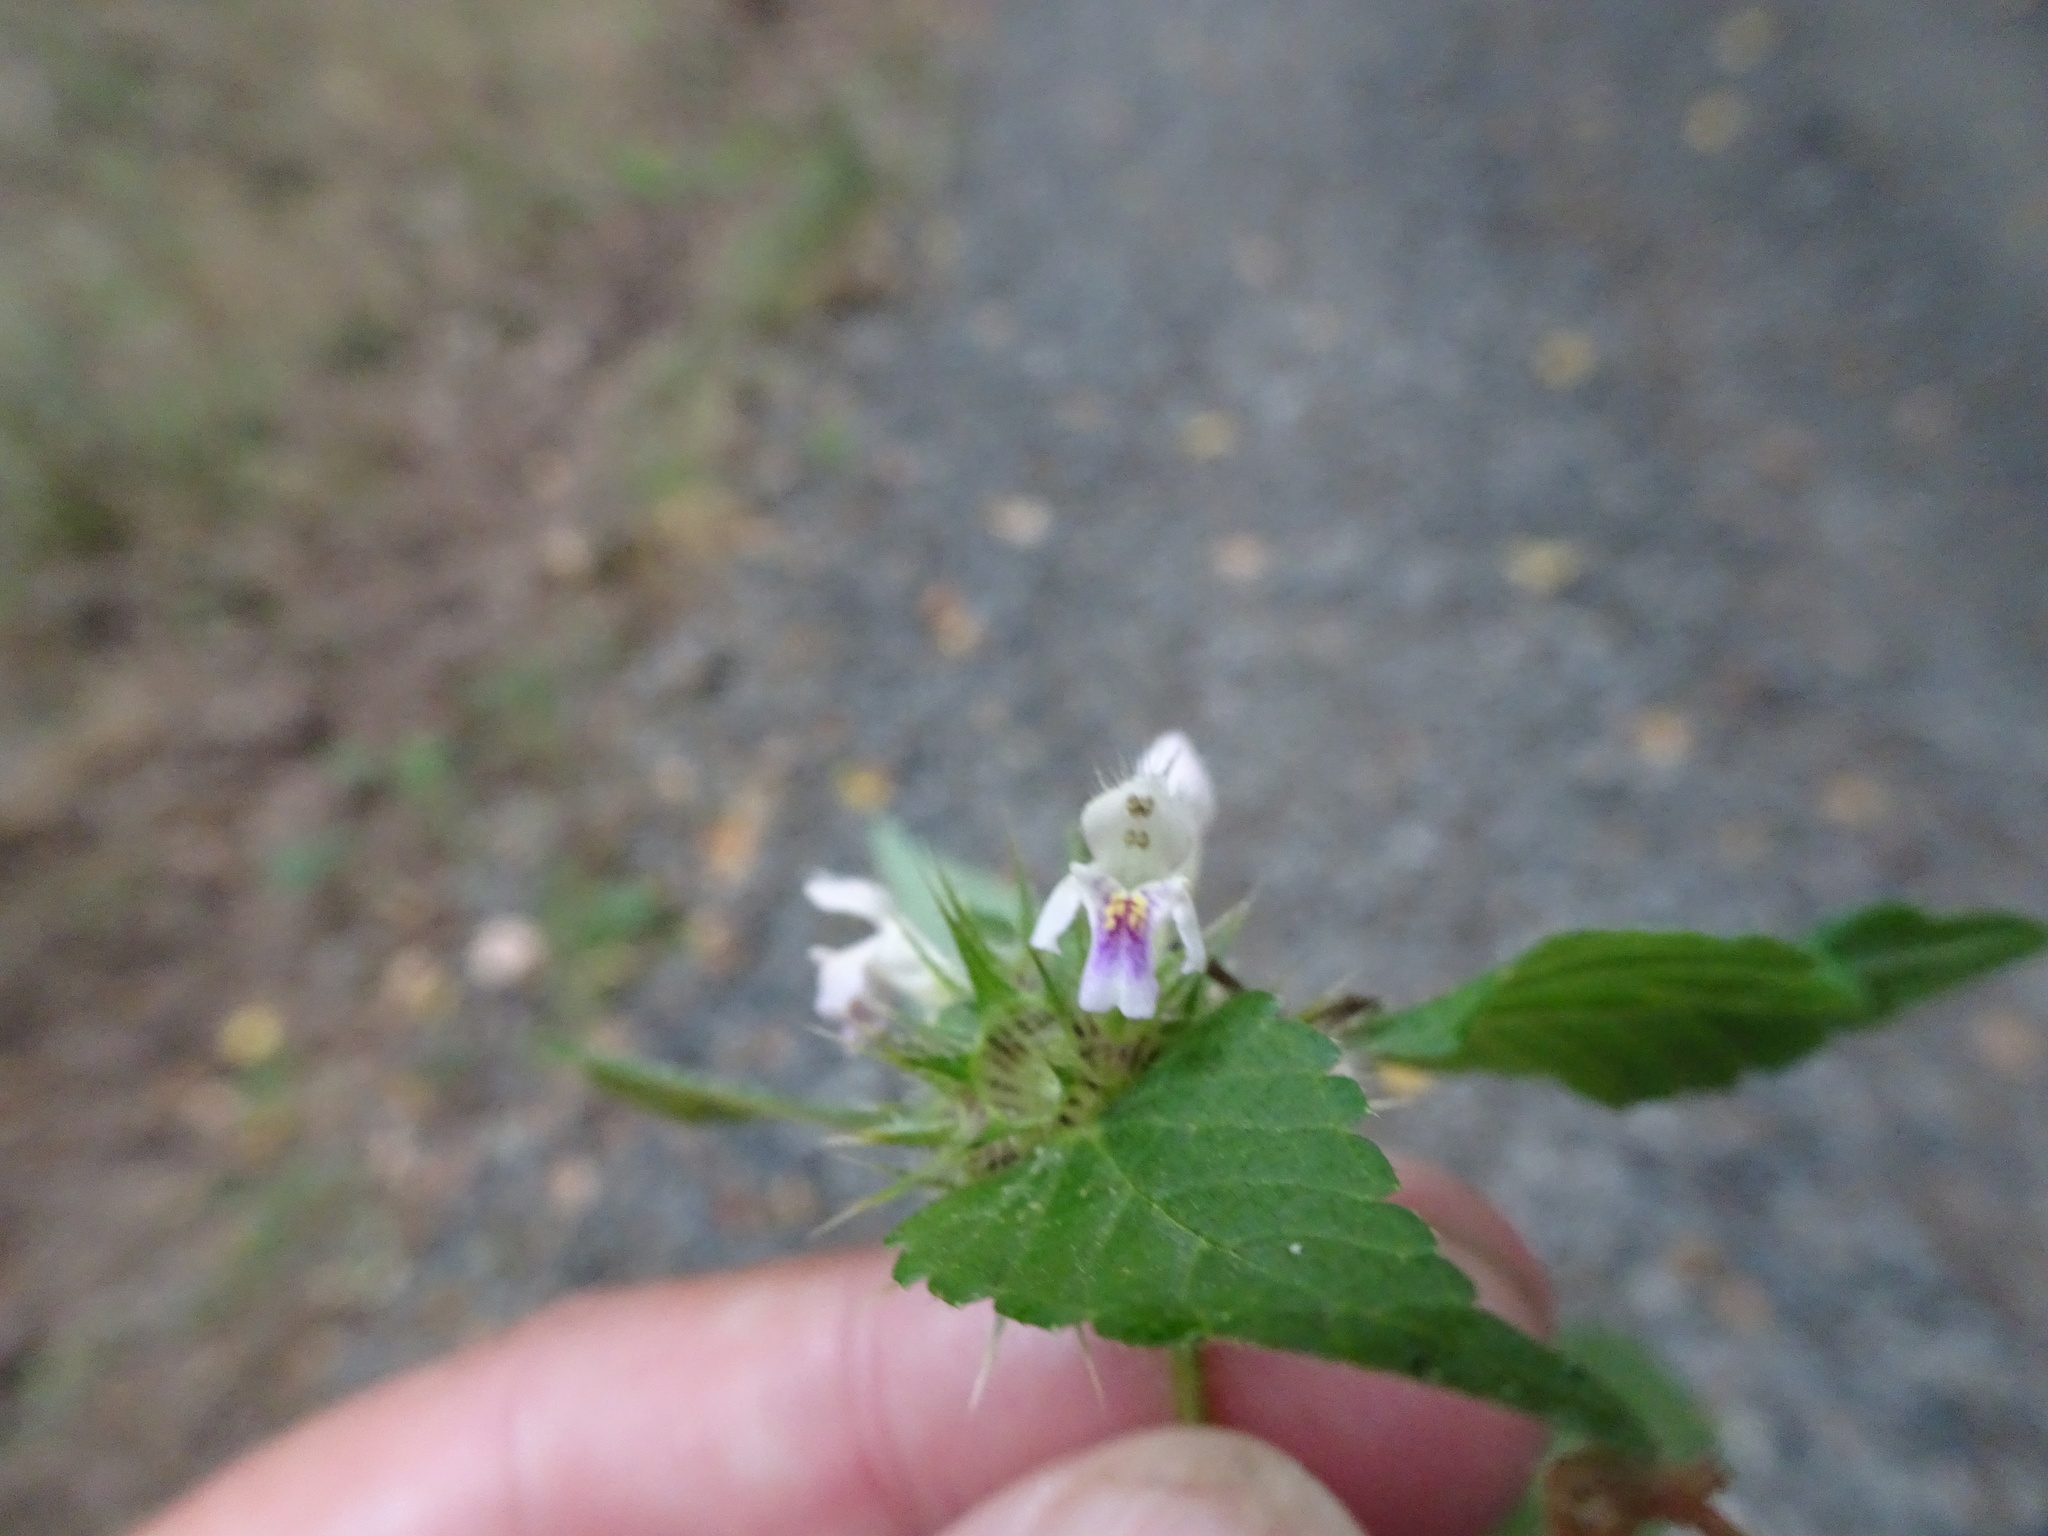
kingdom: Plantae
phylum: Tracheophyta
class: Magnoliopsida
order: Lamiales
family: Lamiaceae
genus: Galeopsis
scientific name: Galeopsis tetrahit
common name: Common hemp-nettle
